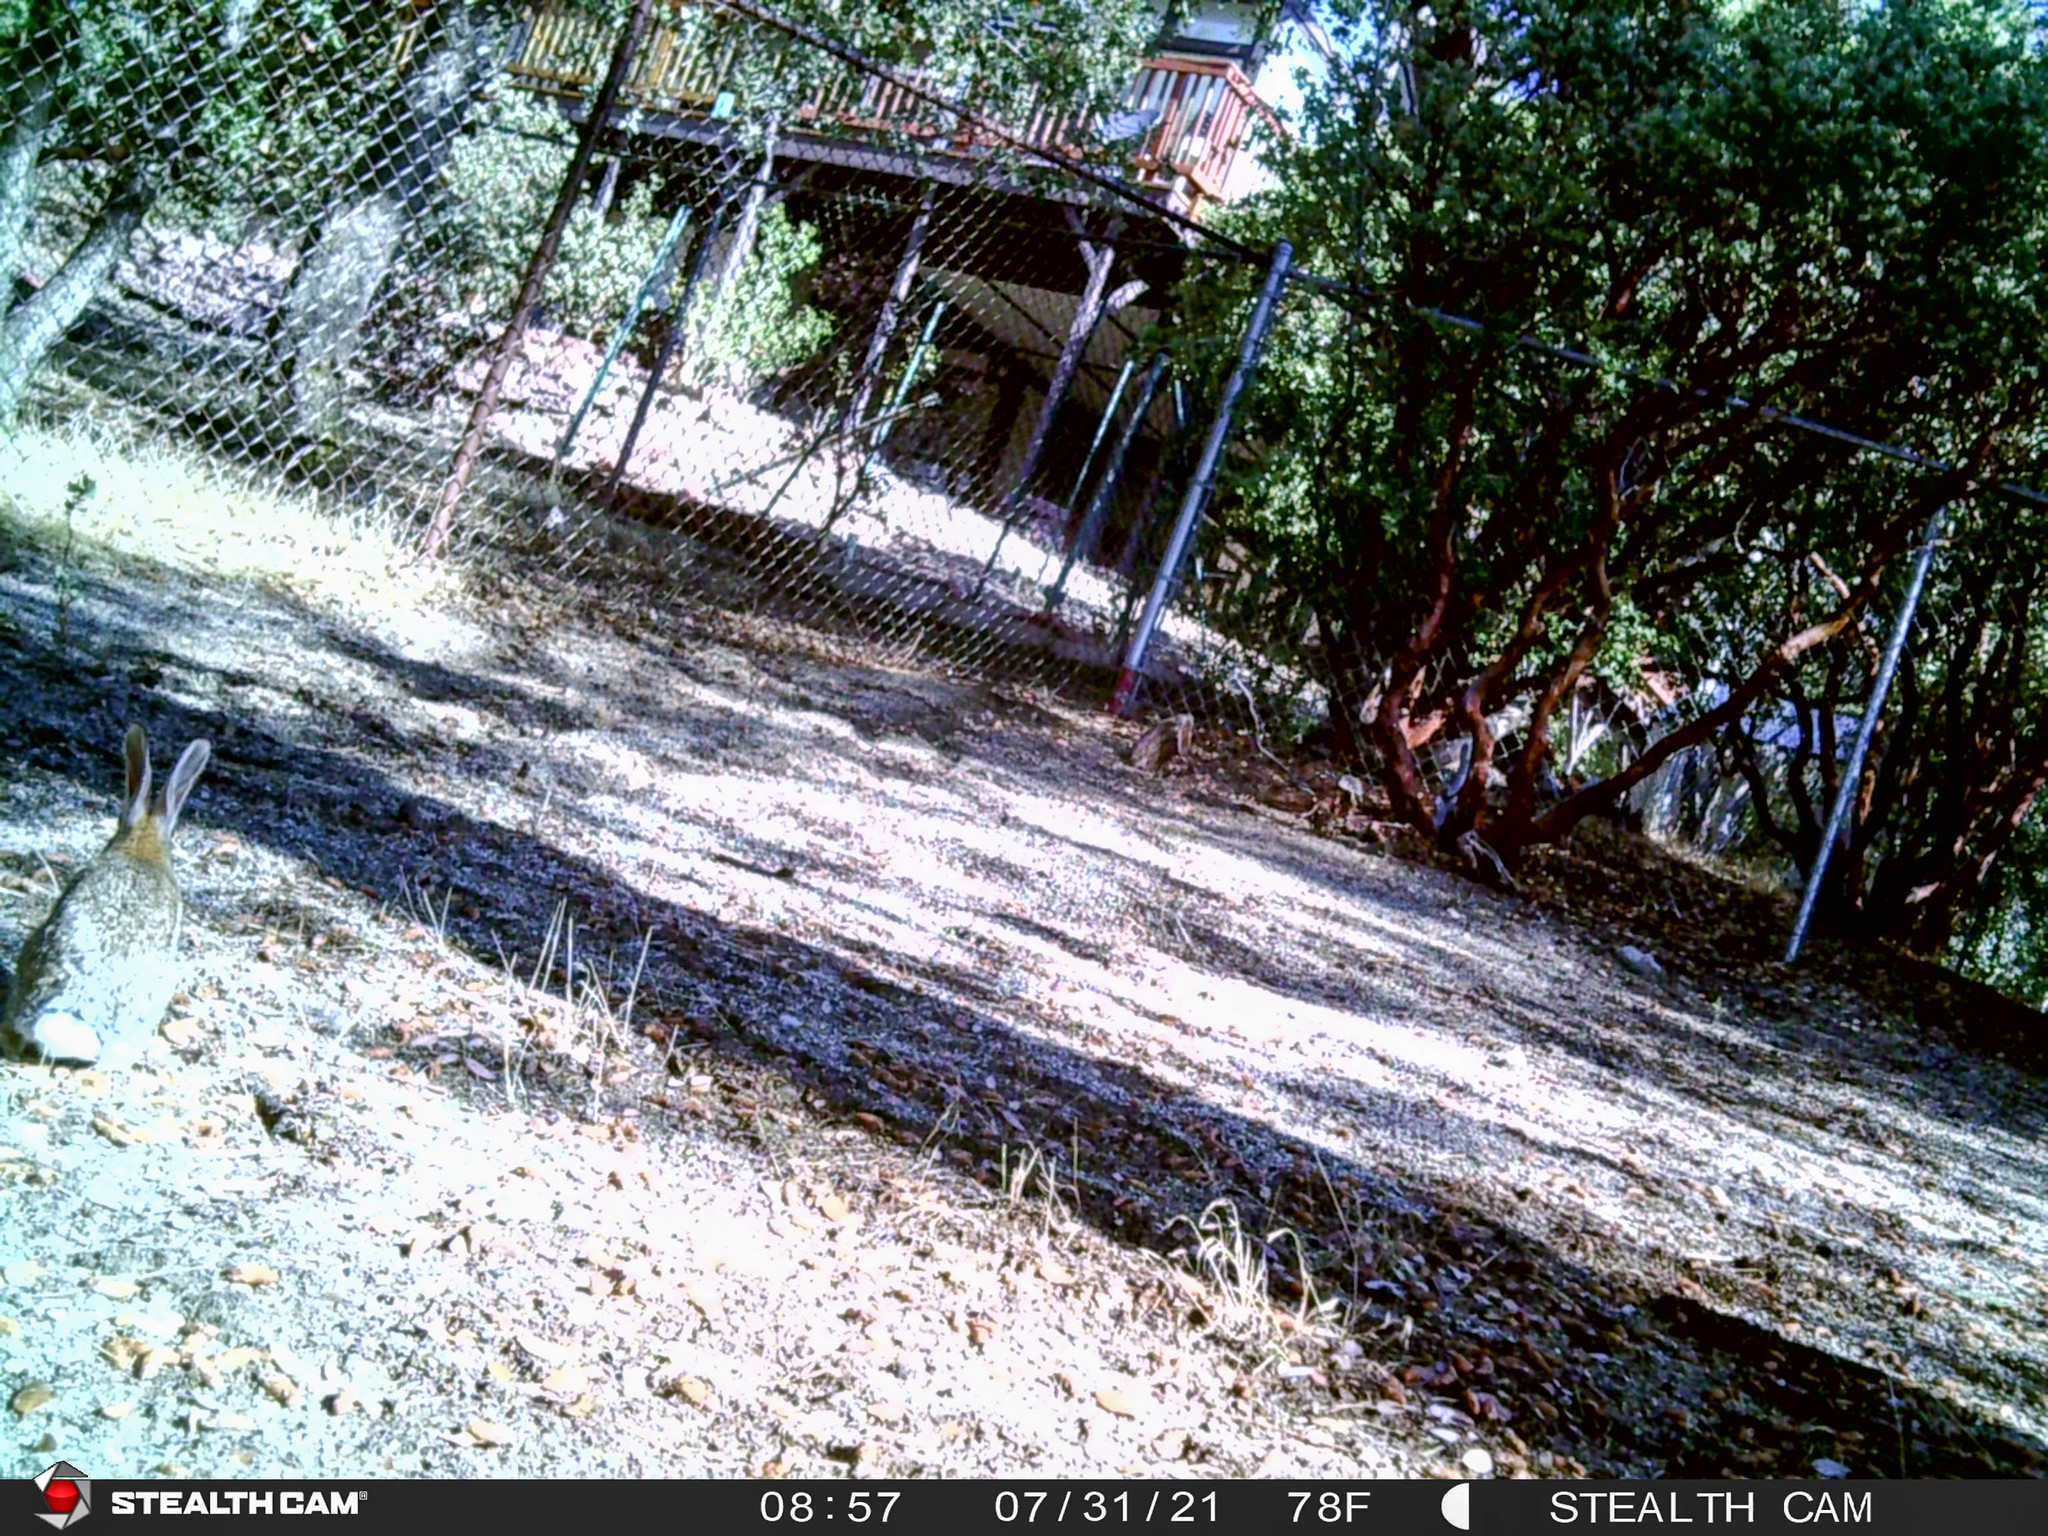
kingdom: Animalia
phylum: Chordata
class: Mammalia
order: Lagomorpha
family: Leporidae
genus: Sylvilagus
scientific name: Sylvilagus audubonii
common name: Desert cottontail
